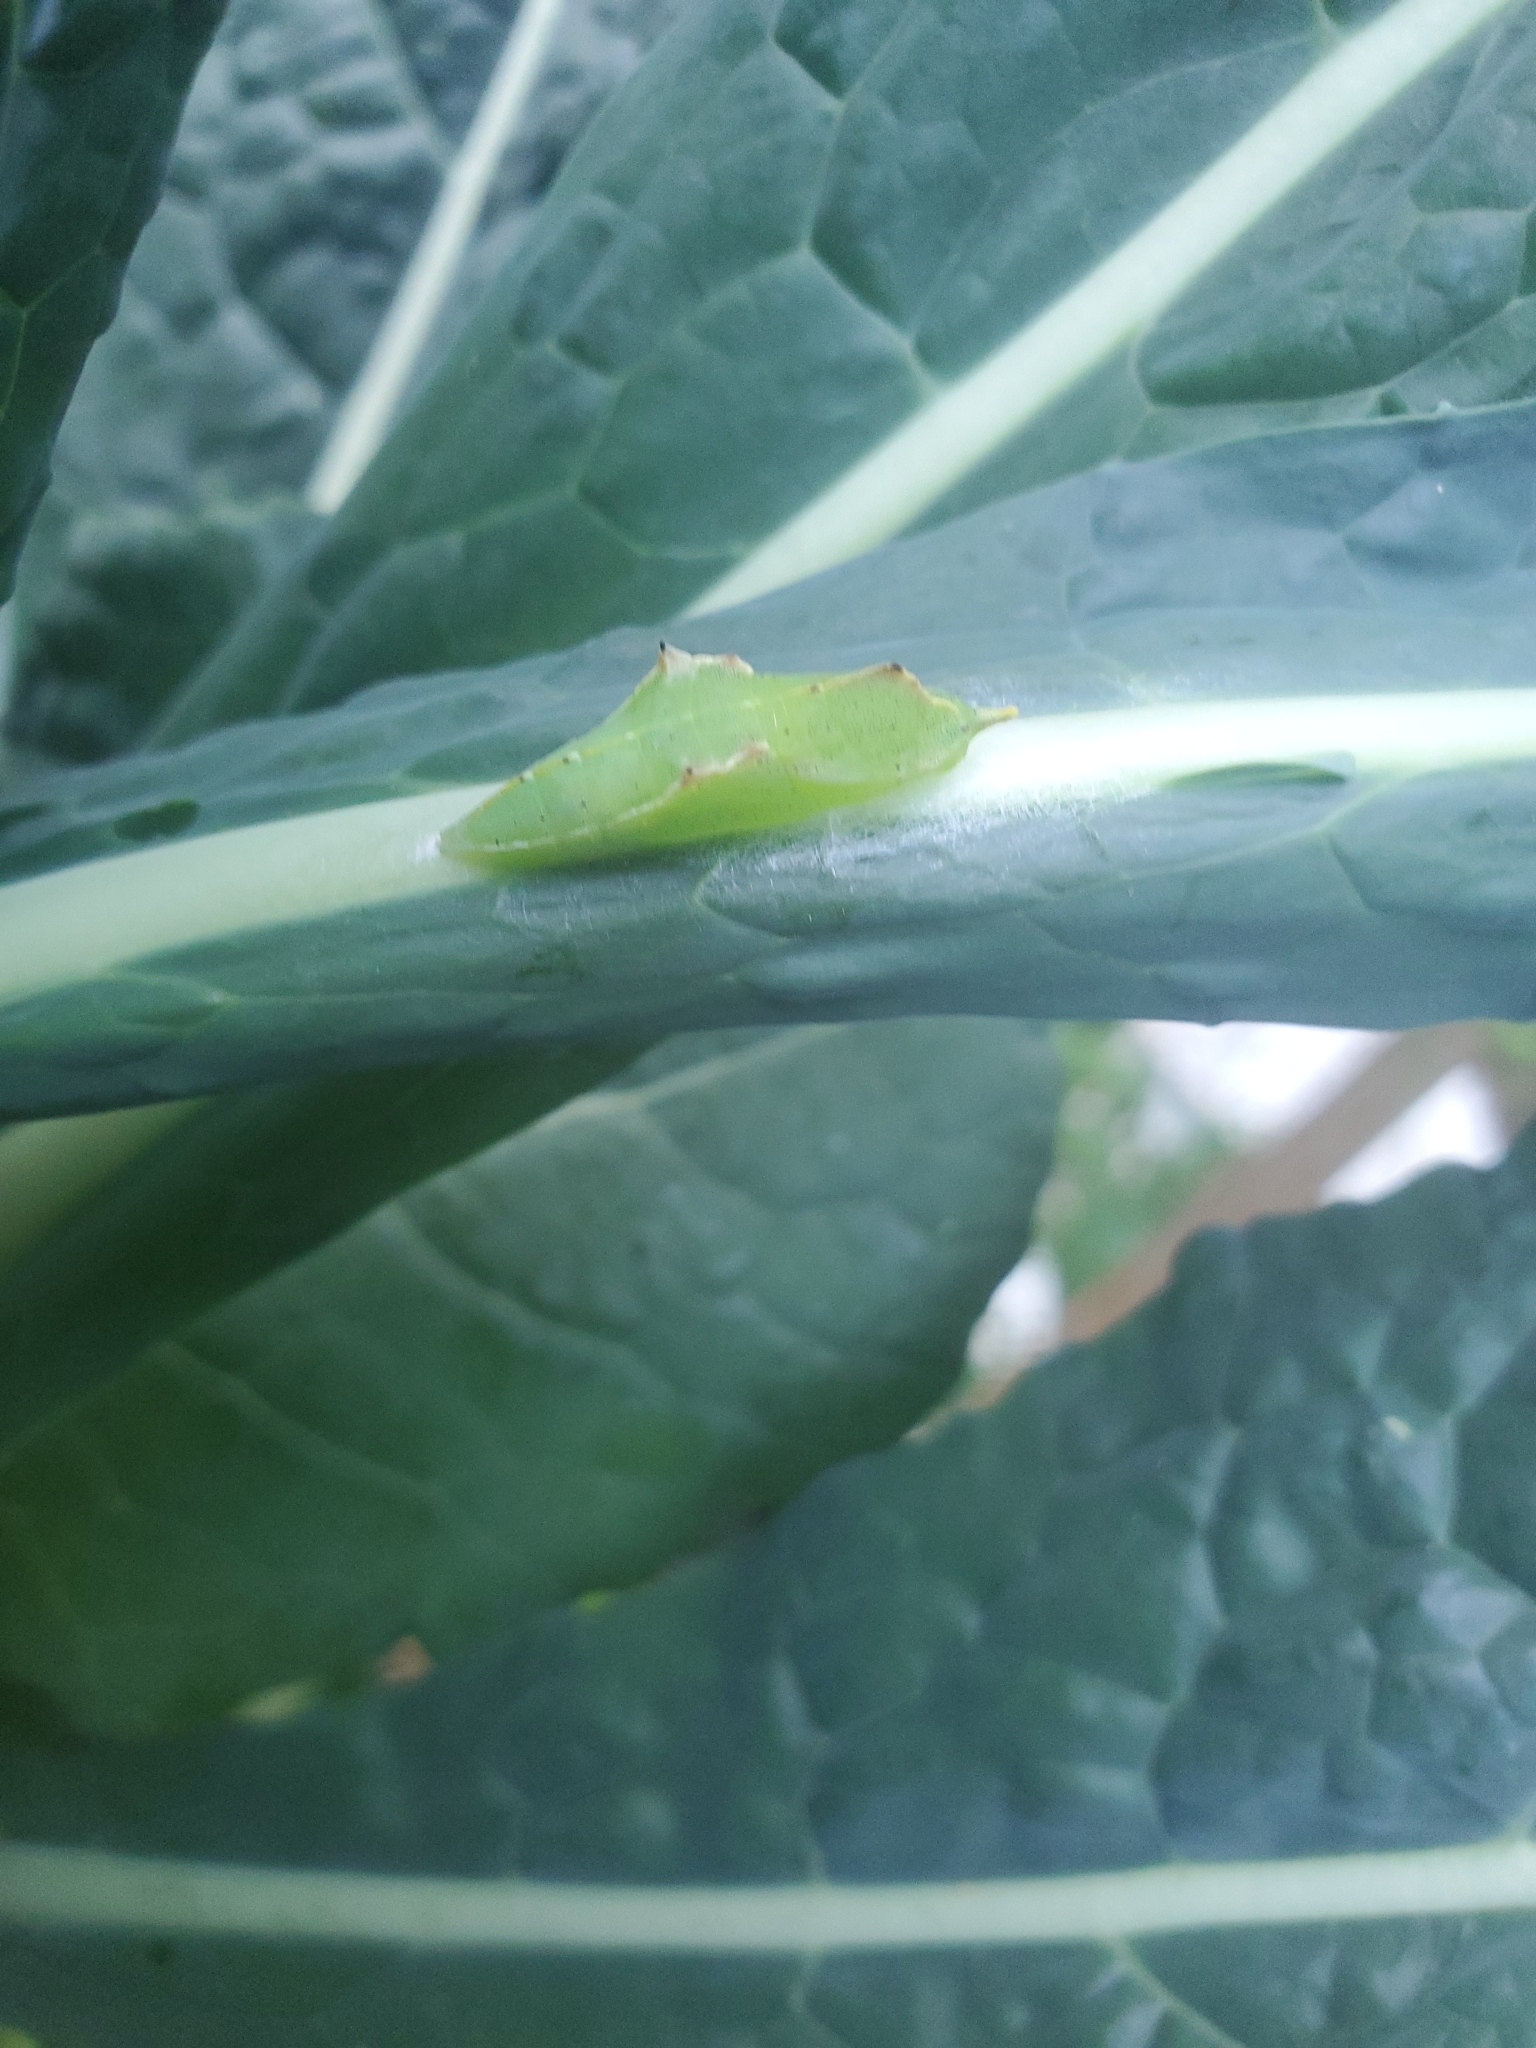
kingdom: Animalia
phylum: Arthropoda
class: Insecta
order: Lepidoptera
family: Pieridae
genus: Pieris
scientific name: Pieris rapae
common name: Small white
